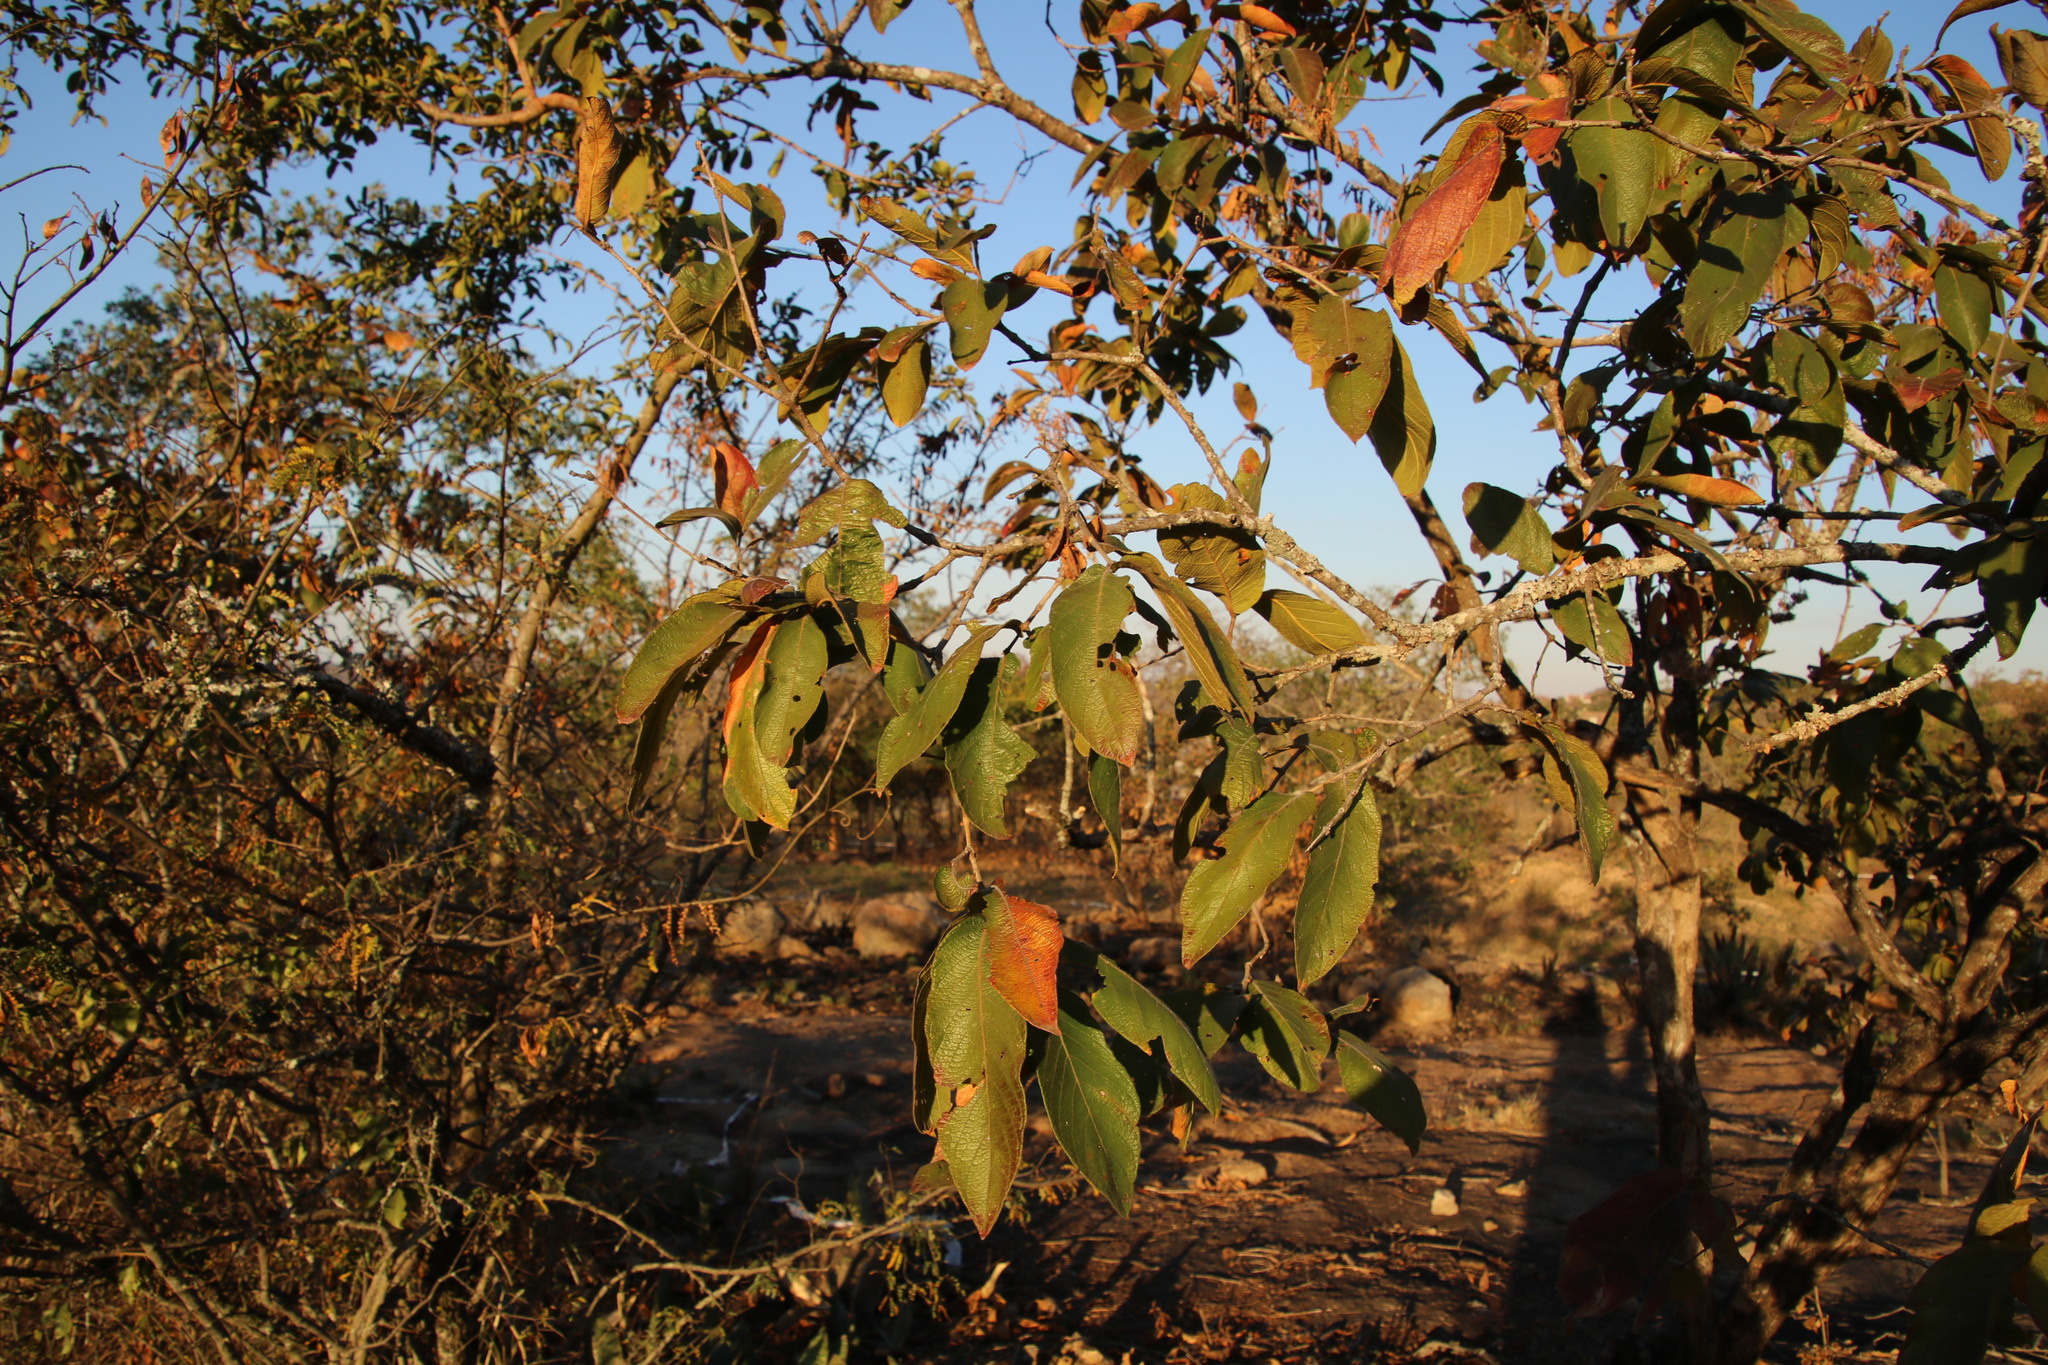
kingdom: Plantae
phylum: Tracheophyta
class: Magnoliopsida
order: Myrtales
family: Combretaceae
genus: Combretum
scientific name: Combretum molle
